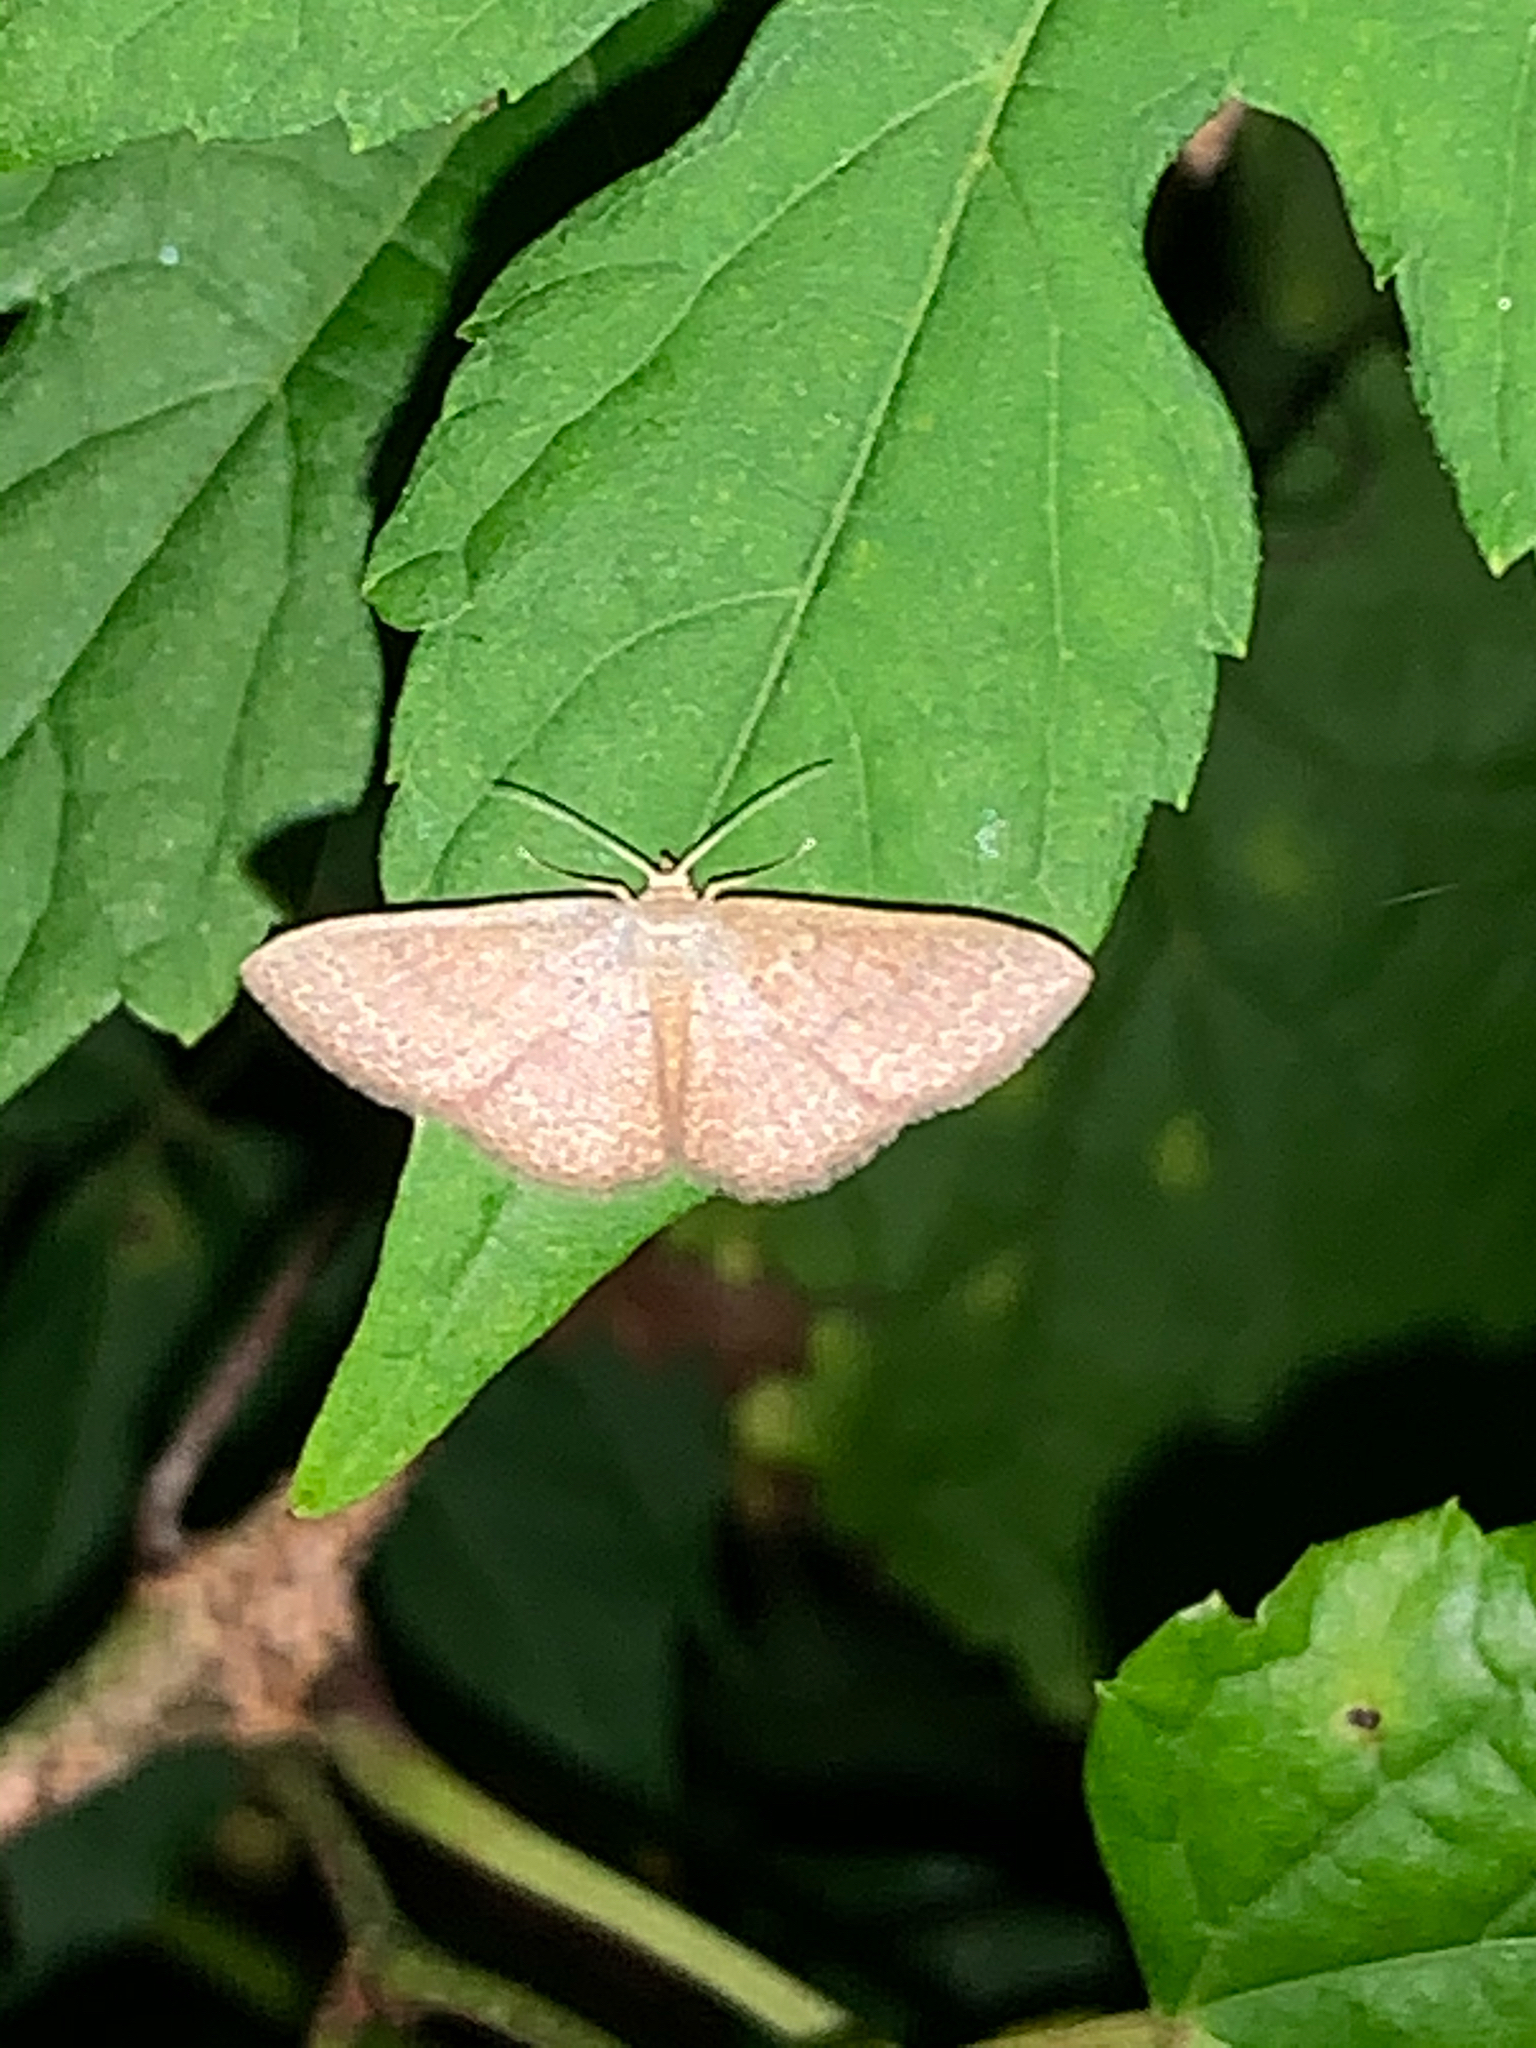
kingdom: Animalia
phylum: Arthropoda
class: Insecta
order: Lepidoptera
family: Geometridae
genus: Pleuroprucha
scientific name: Pleuroprucha insulsaria
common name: Common tan wave
